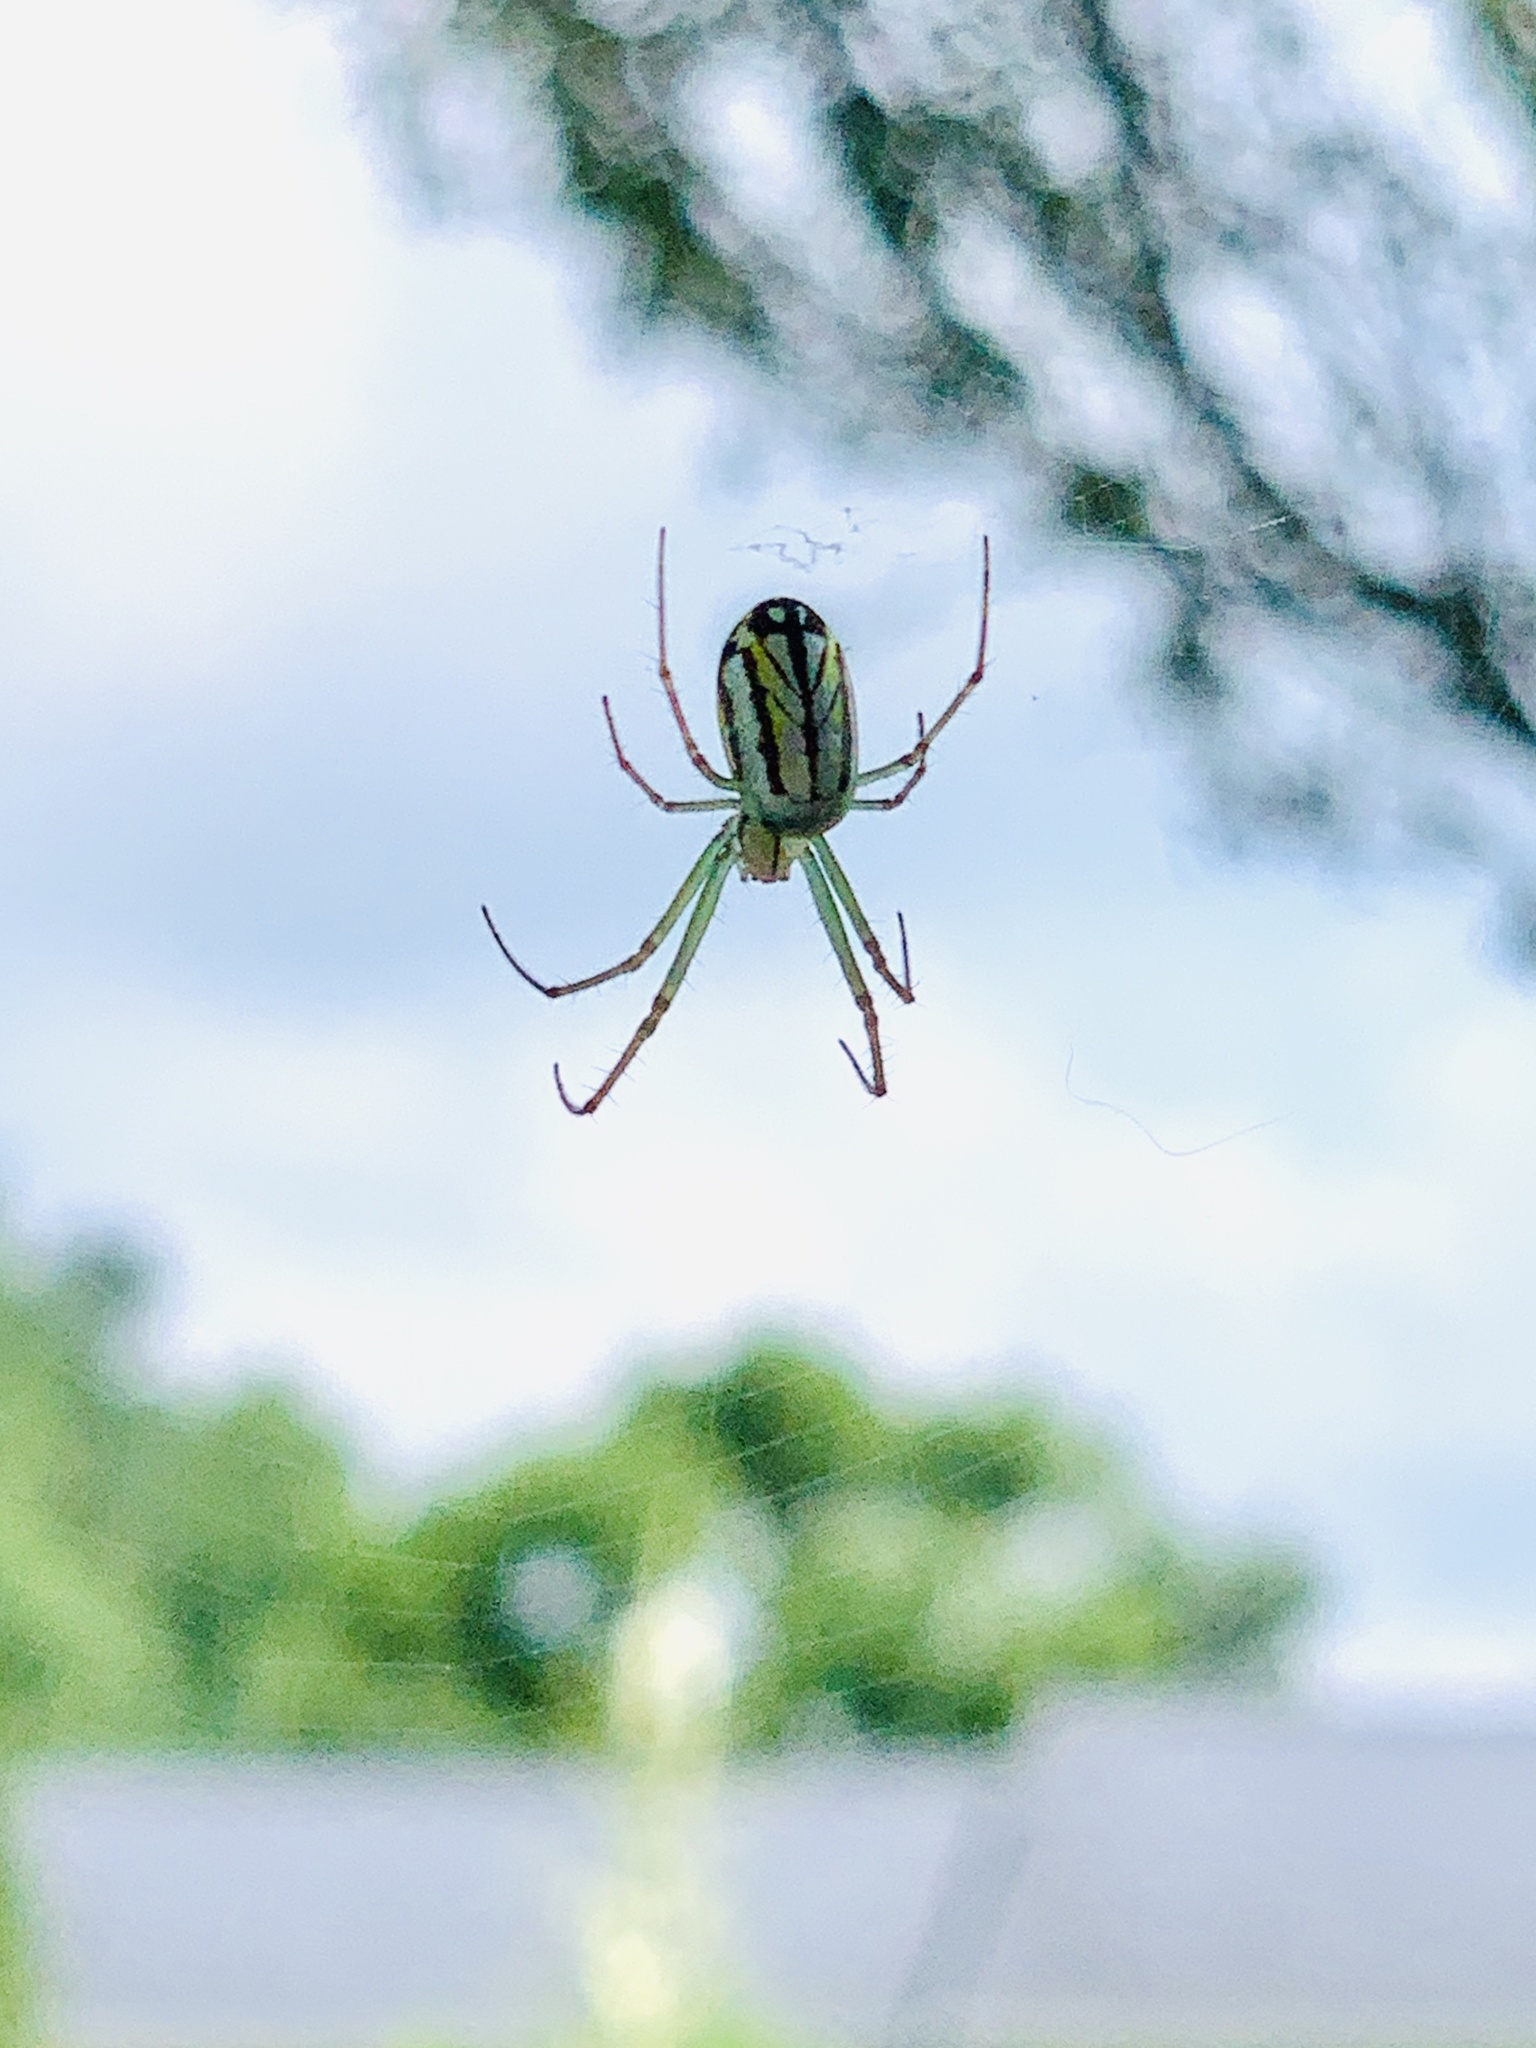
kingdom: Animalia
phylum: Arthropoda
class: Arachnida
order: Araneae
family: Tetragnathidae
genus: Leucauge
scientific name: Leucauge venusta
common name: Longjawed orb weavers
